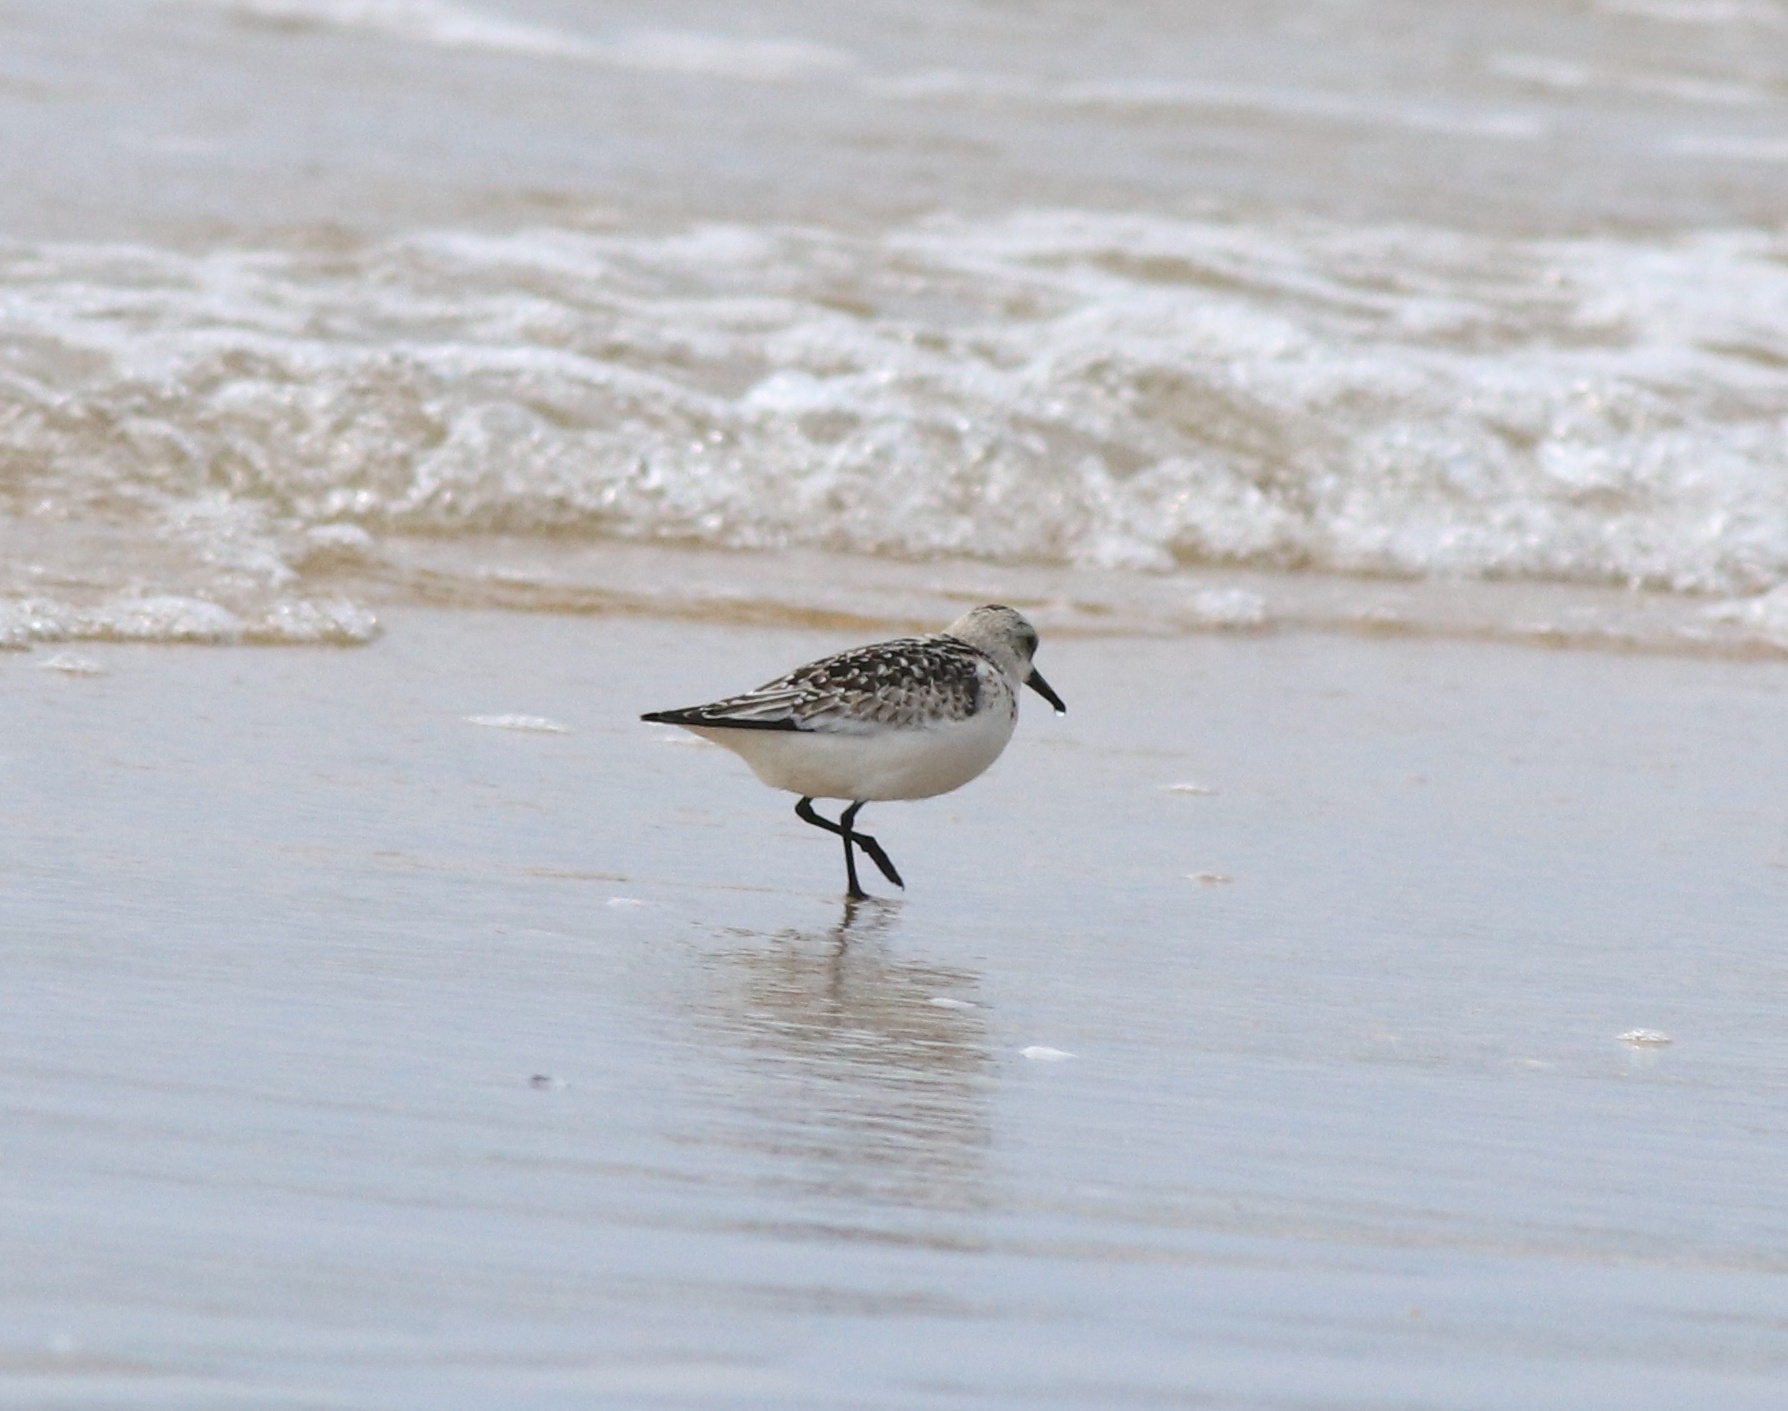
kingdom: Animalia
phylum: Chordata
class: Aves
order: Charadriiformes
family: Scolopacidae
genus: Calidris
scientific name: Calidris alba
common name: Sanderling
